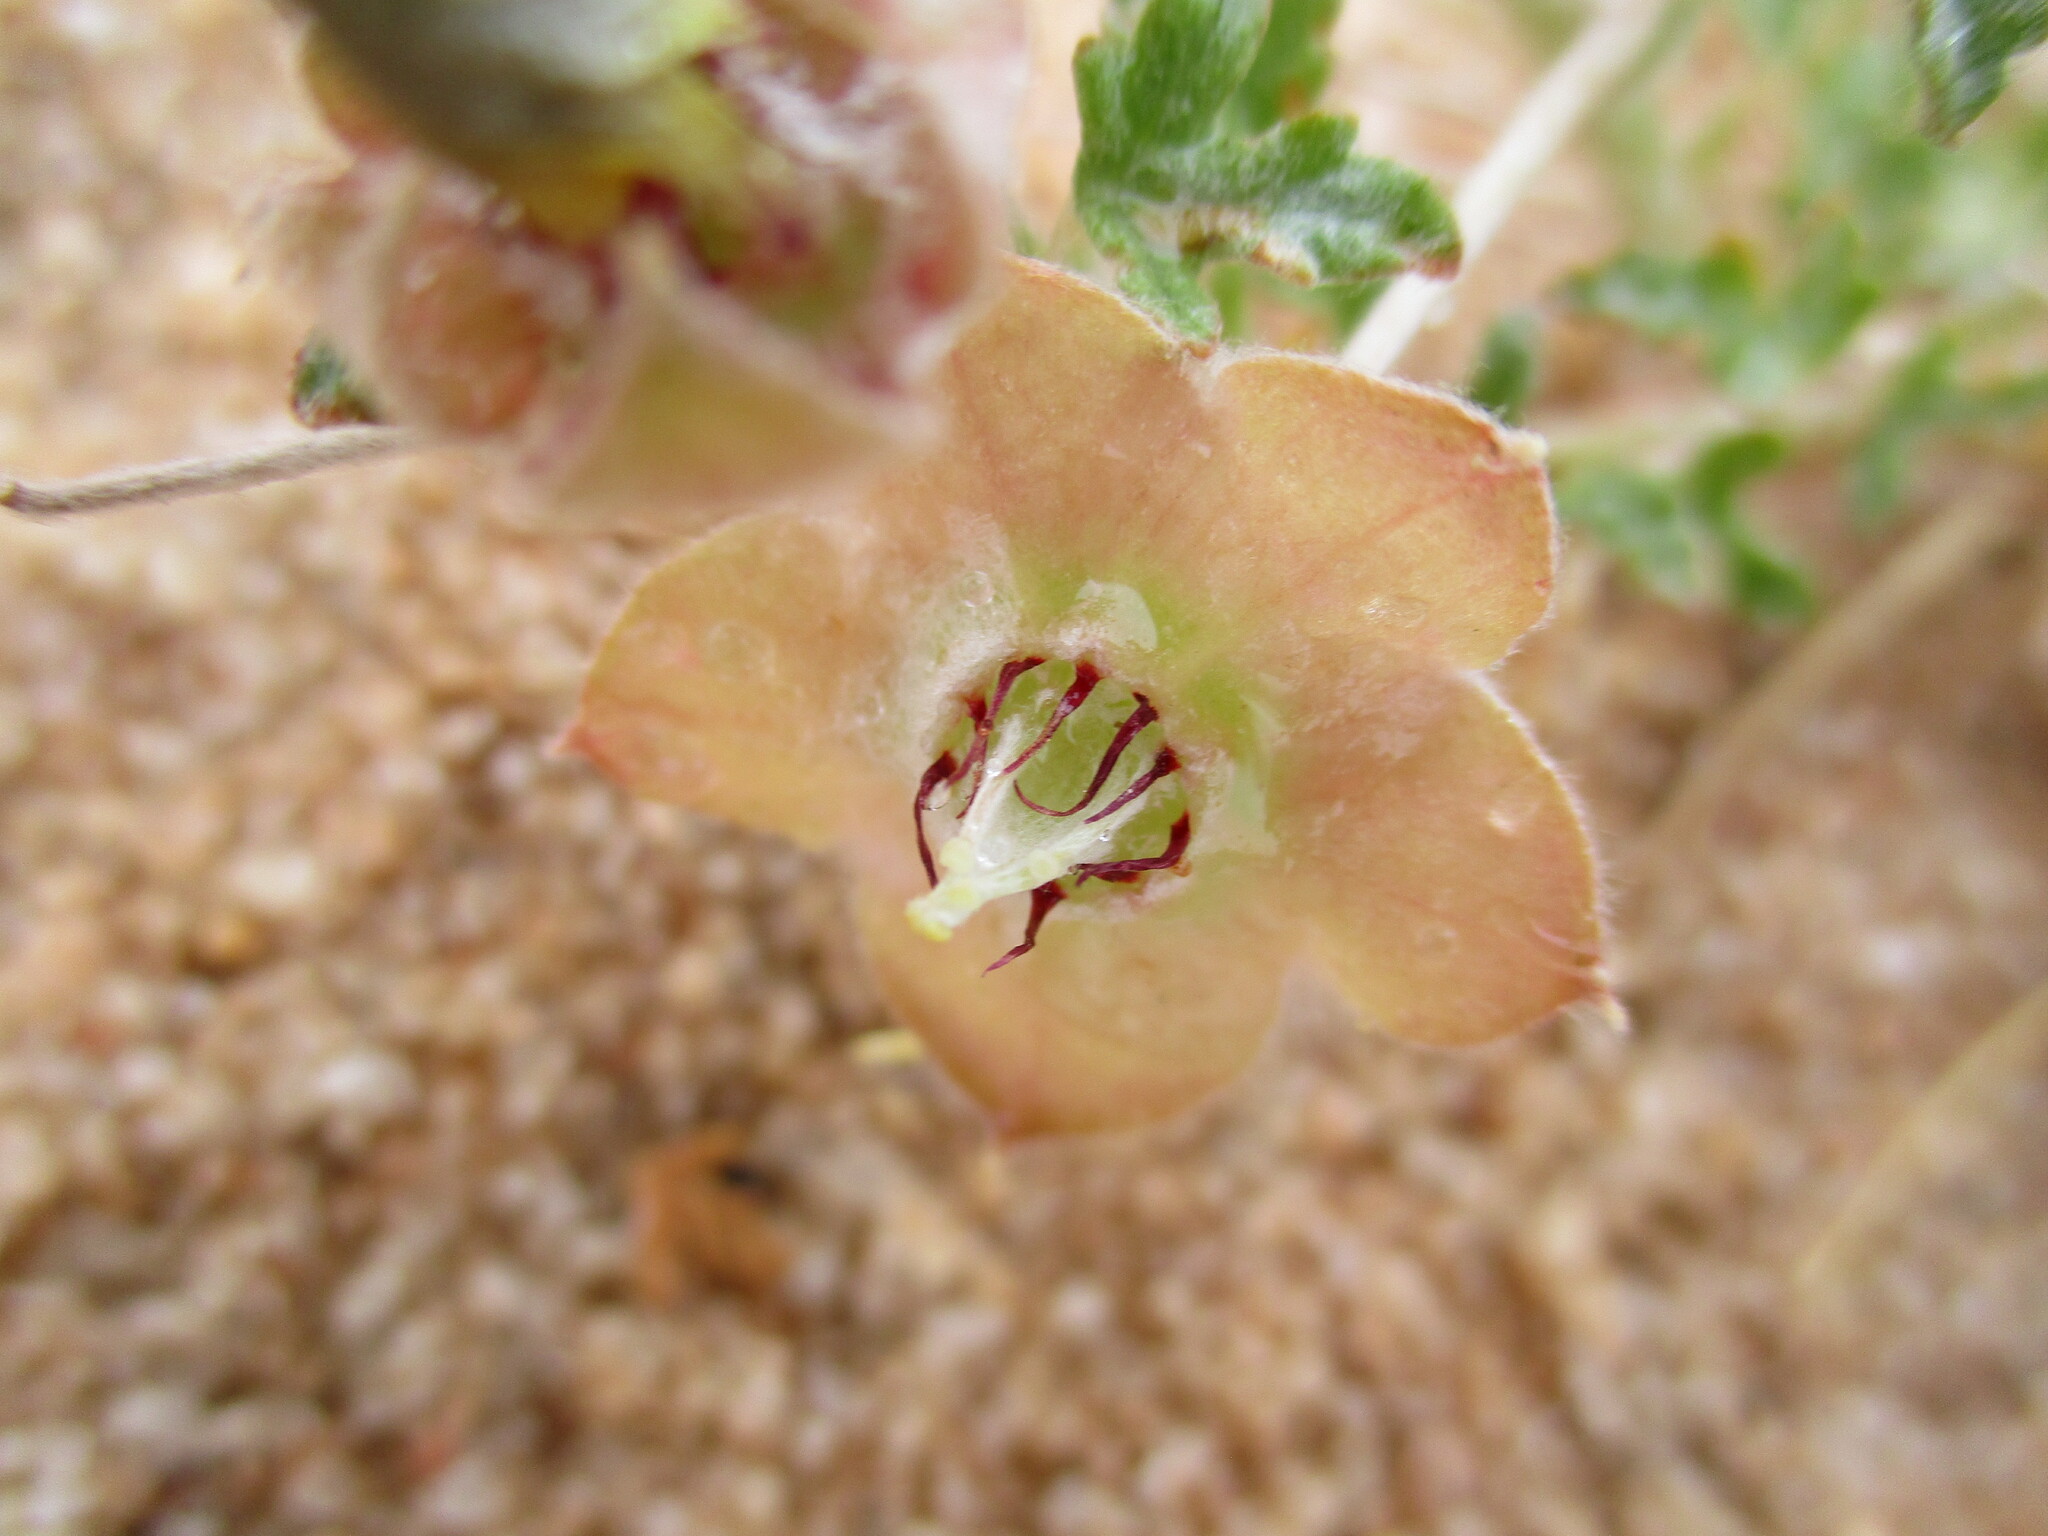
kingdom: Plantae
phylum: Tracheophyta
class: Magnoliopsida
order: Malvales
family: Neuradaceae
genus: Grielum
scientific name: Grielum sinuatum
